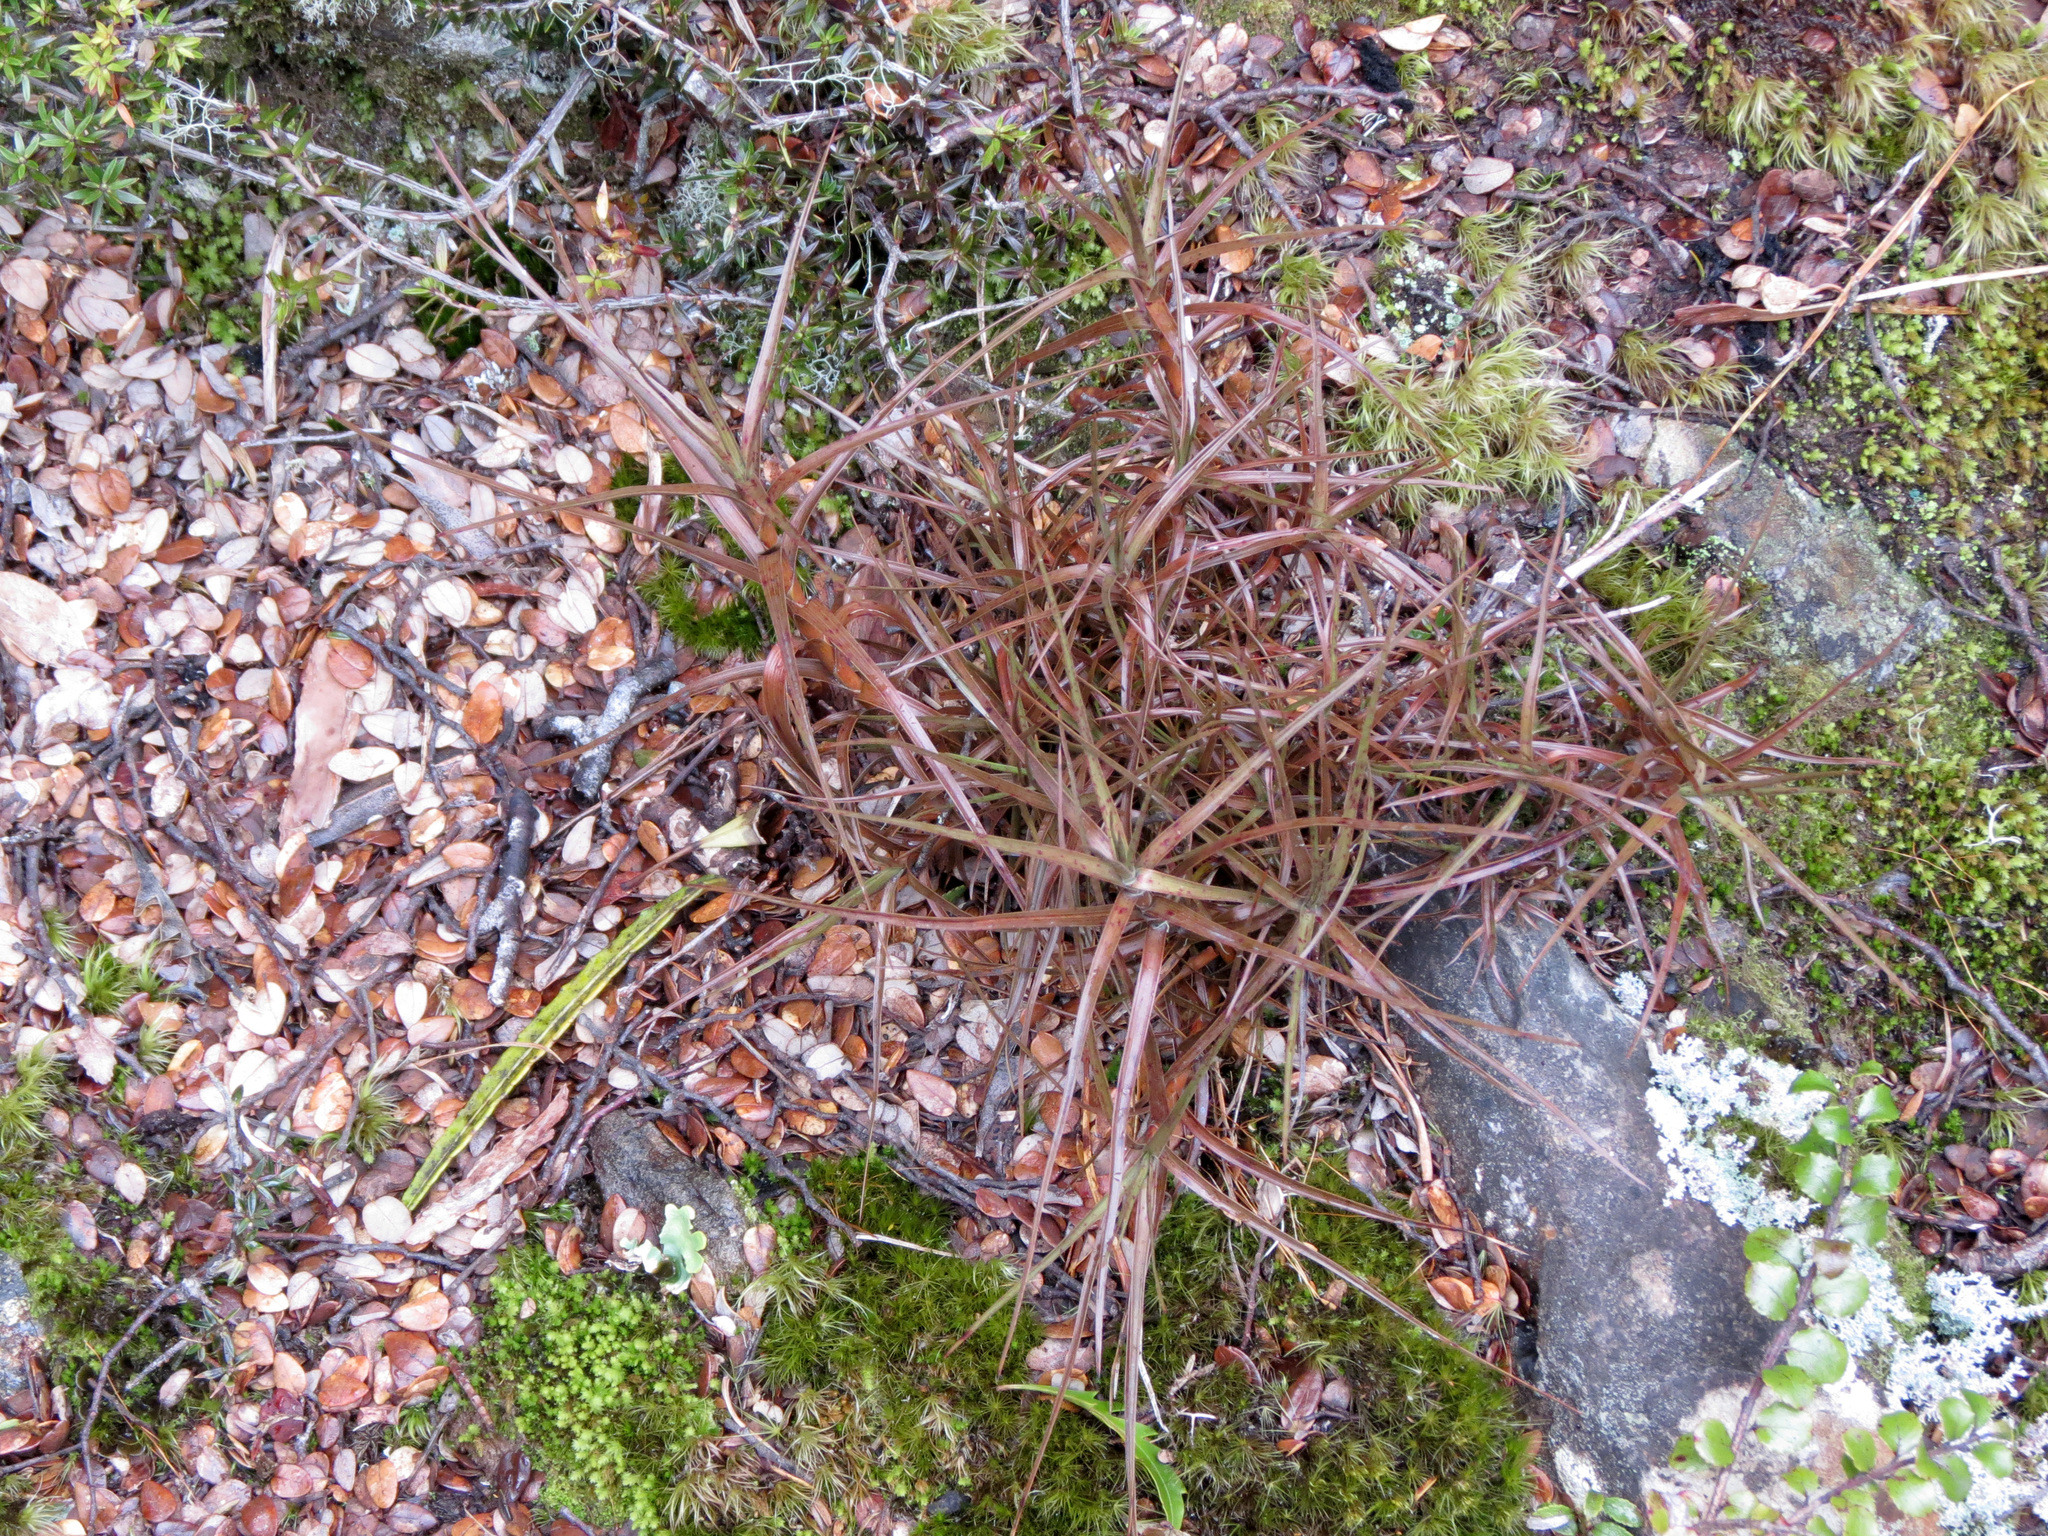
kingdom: Plantae
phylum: Tracheophyta
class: Magnoliopsida
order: Ericales
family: Ericaceae
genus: Dracophyllum
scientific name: Dracophyllum longifolium
